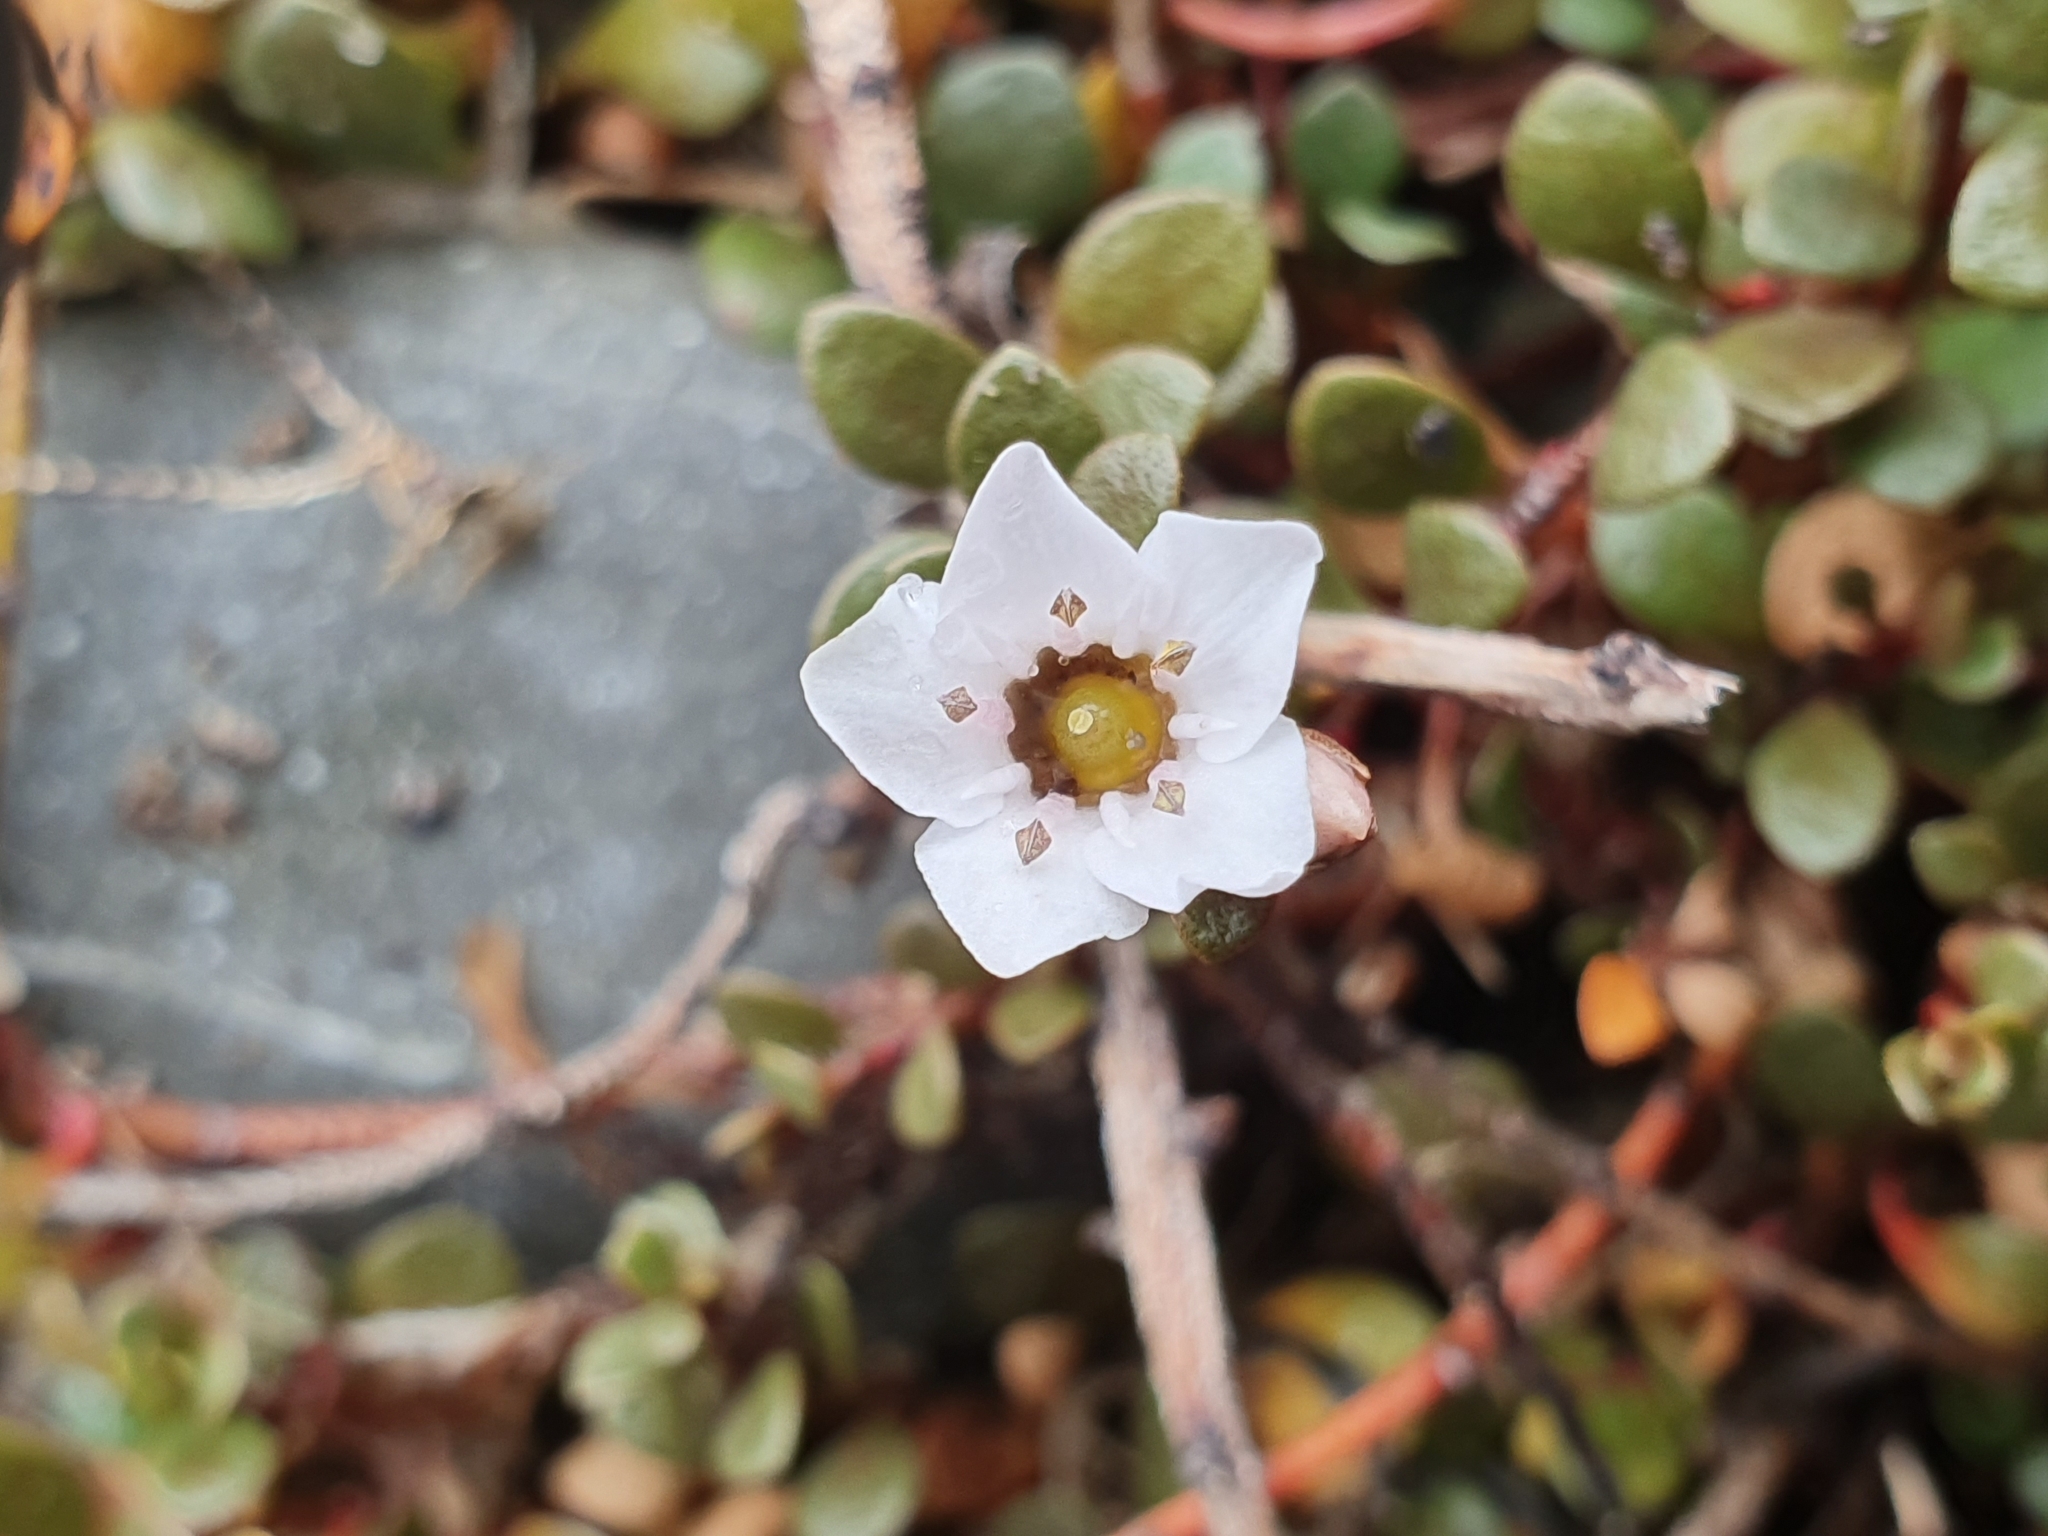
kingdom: Plantae
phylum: Tracheophyta
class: Magnoliopsida
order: Ericales
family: Primulaceae
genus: Samolus
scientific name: Samolus repens
